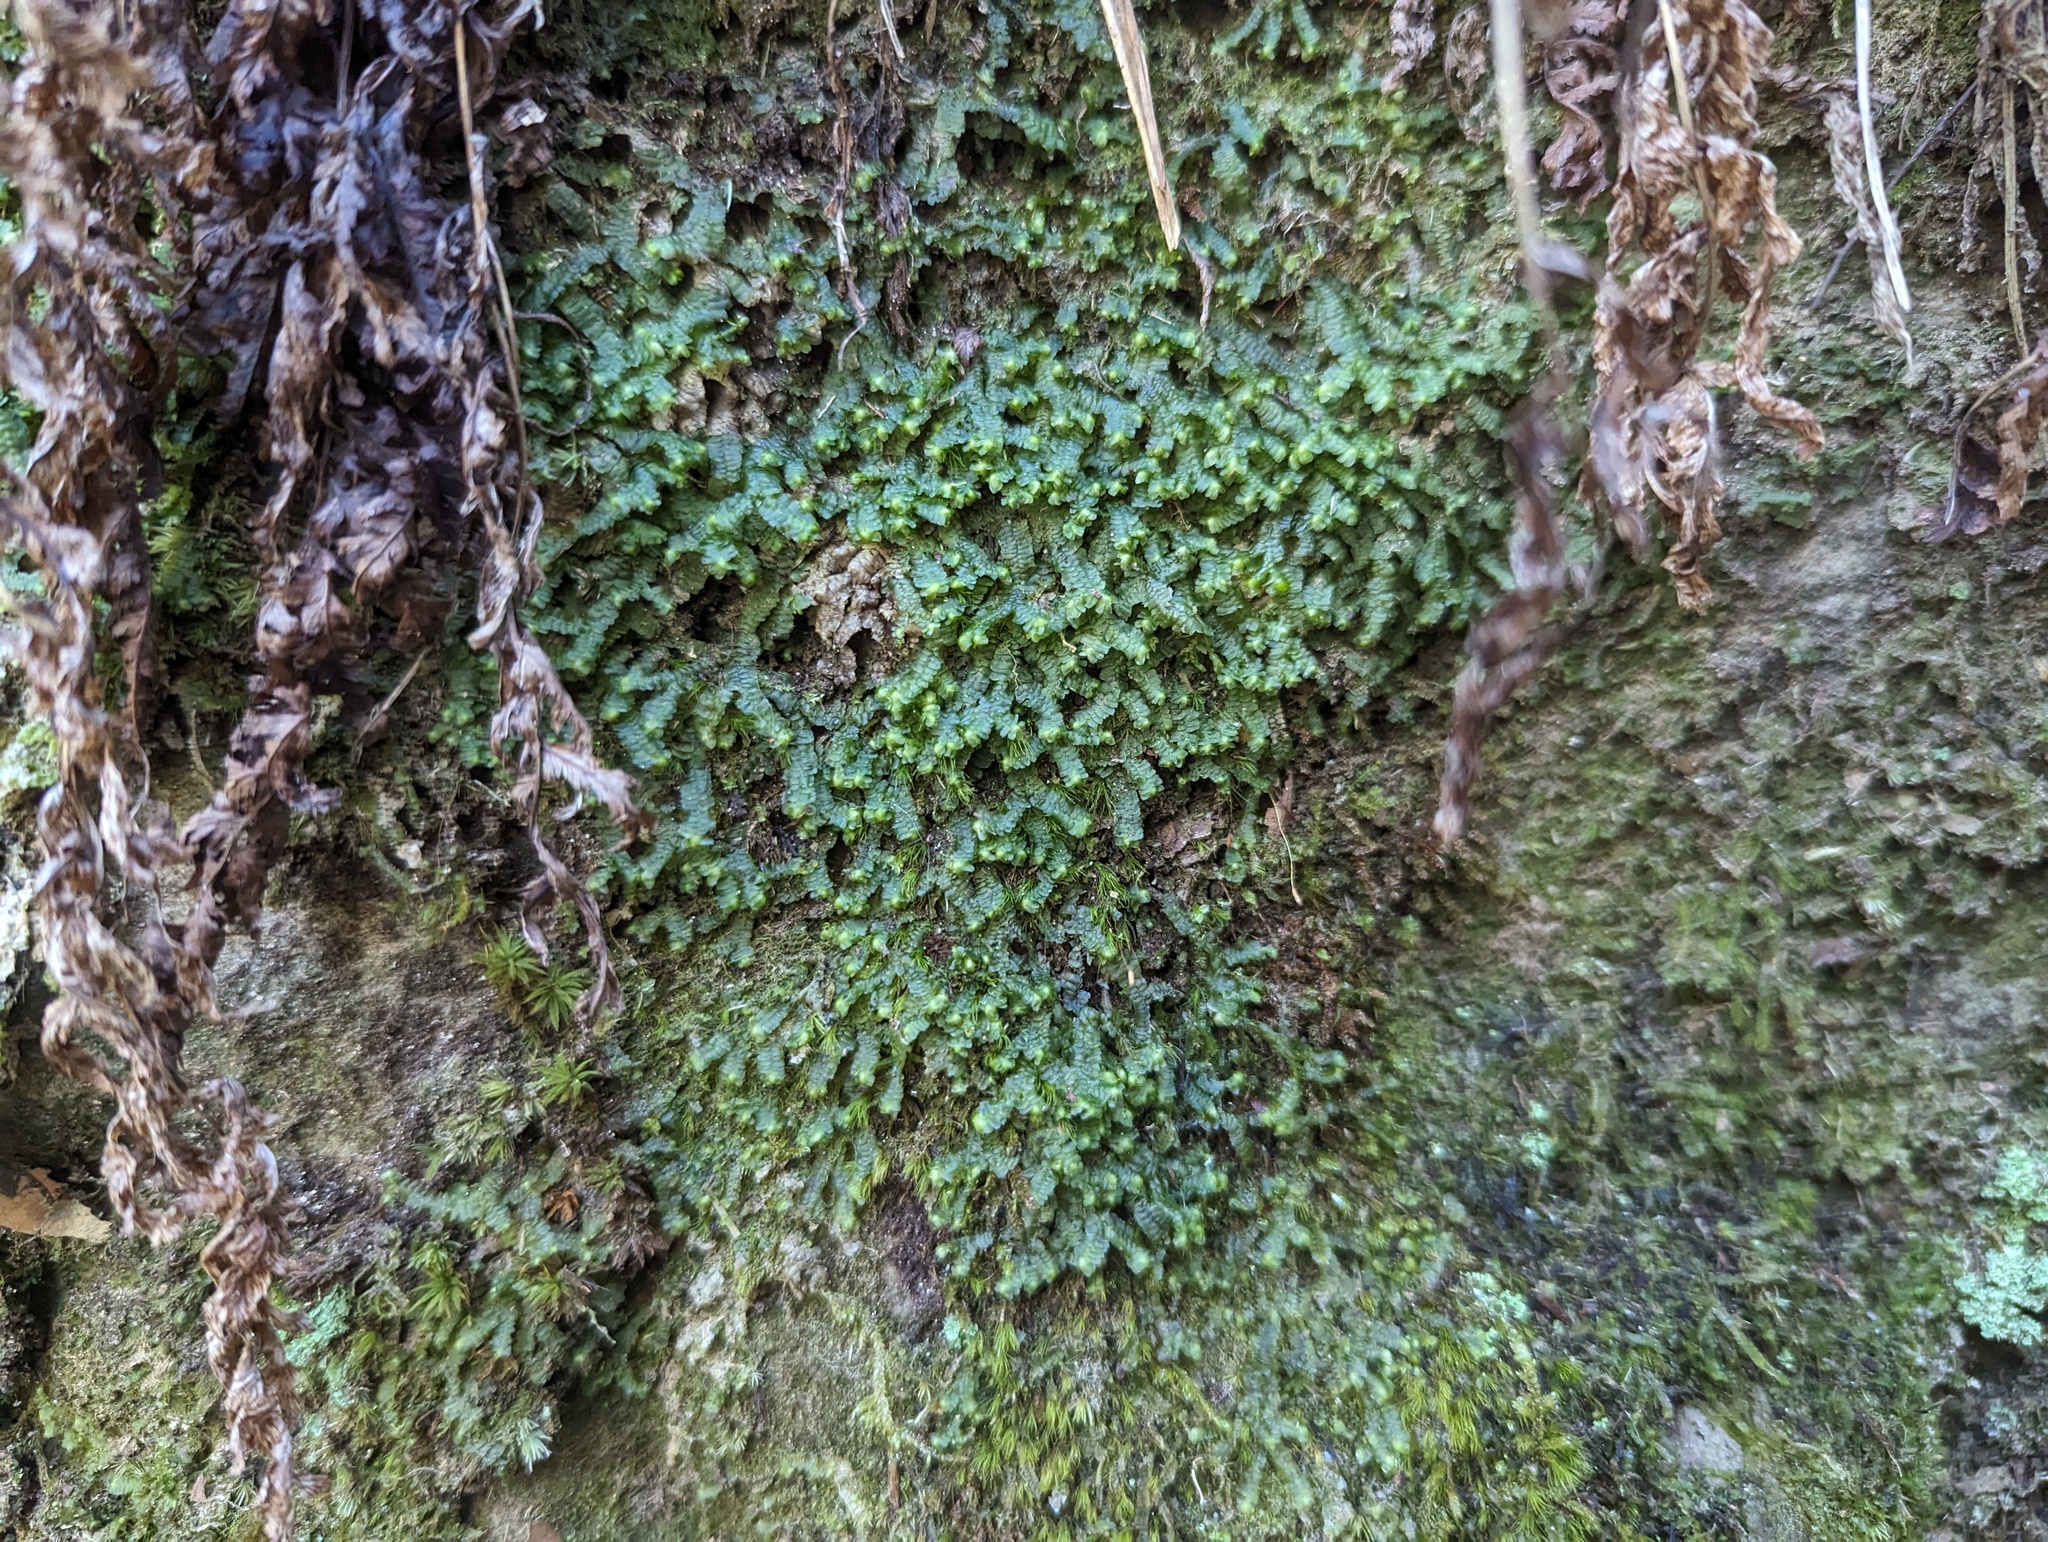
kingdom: Plantae
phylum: Marchantiophyta
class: Jungermanniopsida
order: Jungermanniales
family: Lepidoziaceae
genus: Bazzania
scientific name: Bazzania trilobata
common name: Three-lobed whipwort
